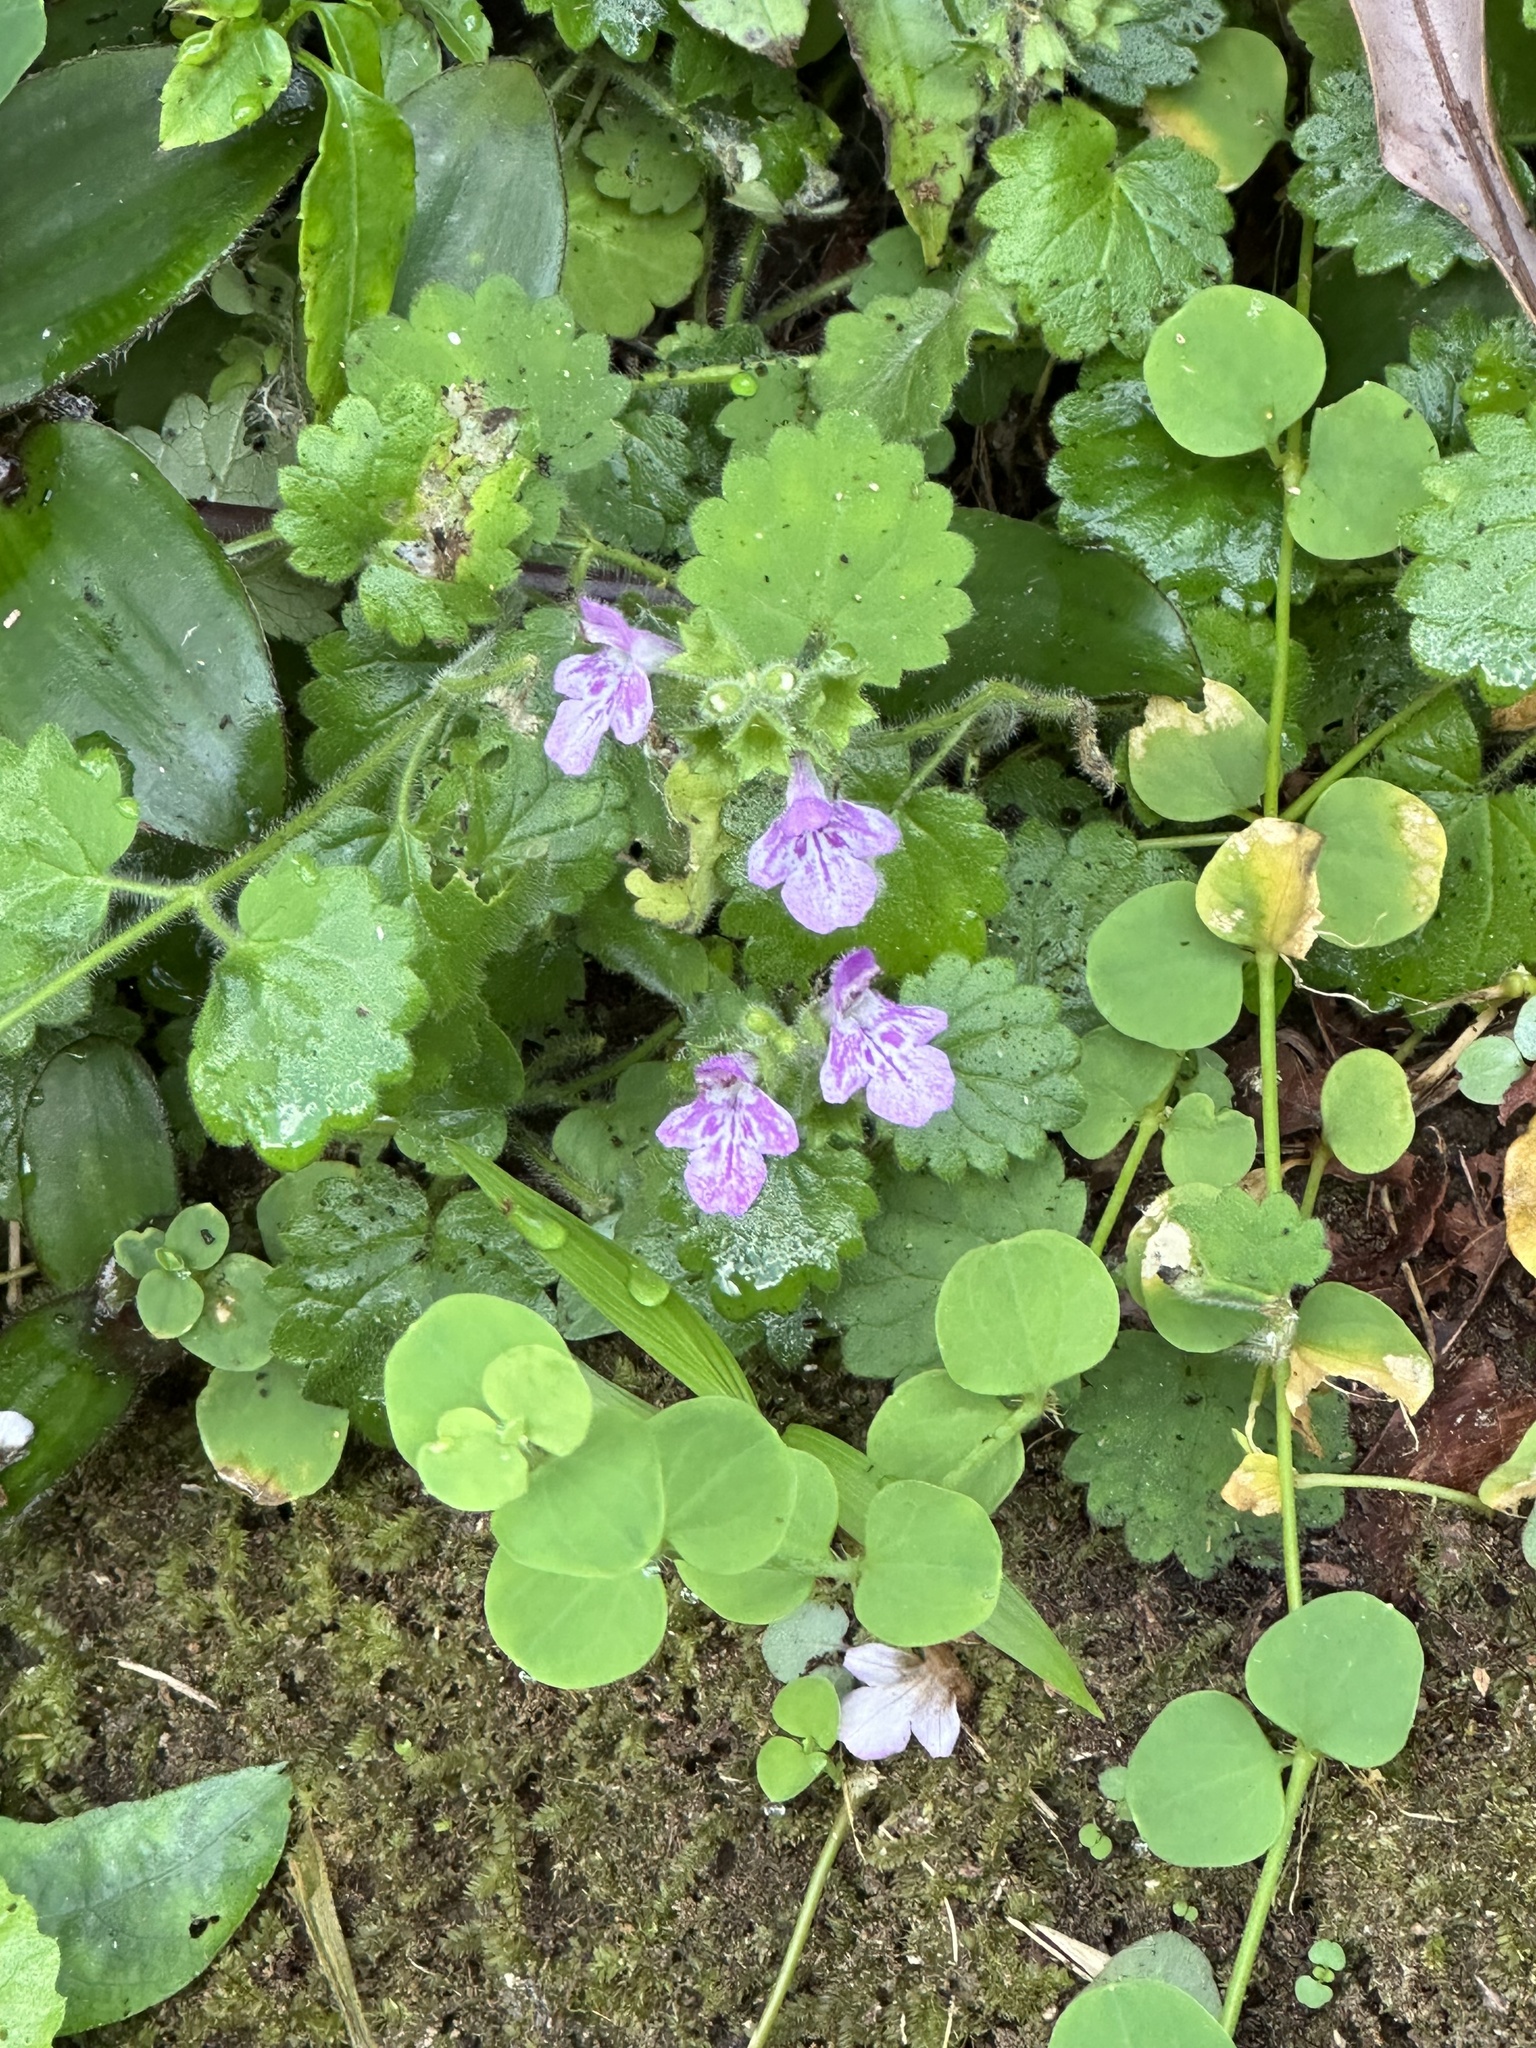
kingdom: Plantae
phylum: Tracheophyta
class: Magnoliopsida
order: Lamiales
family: Lamiaceae
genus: Suzukia
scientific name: Suzukia shikikunensis
